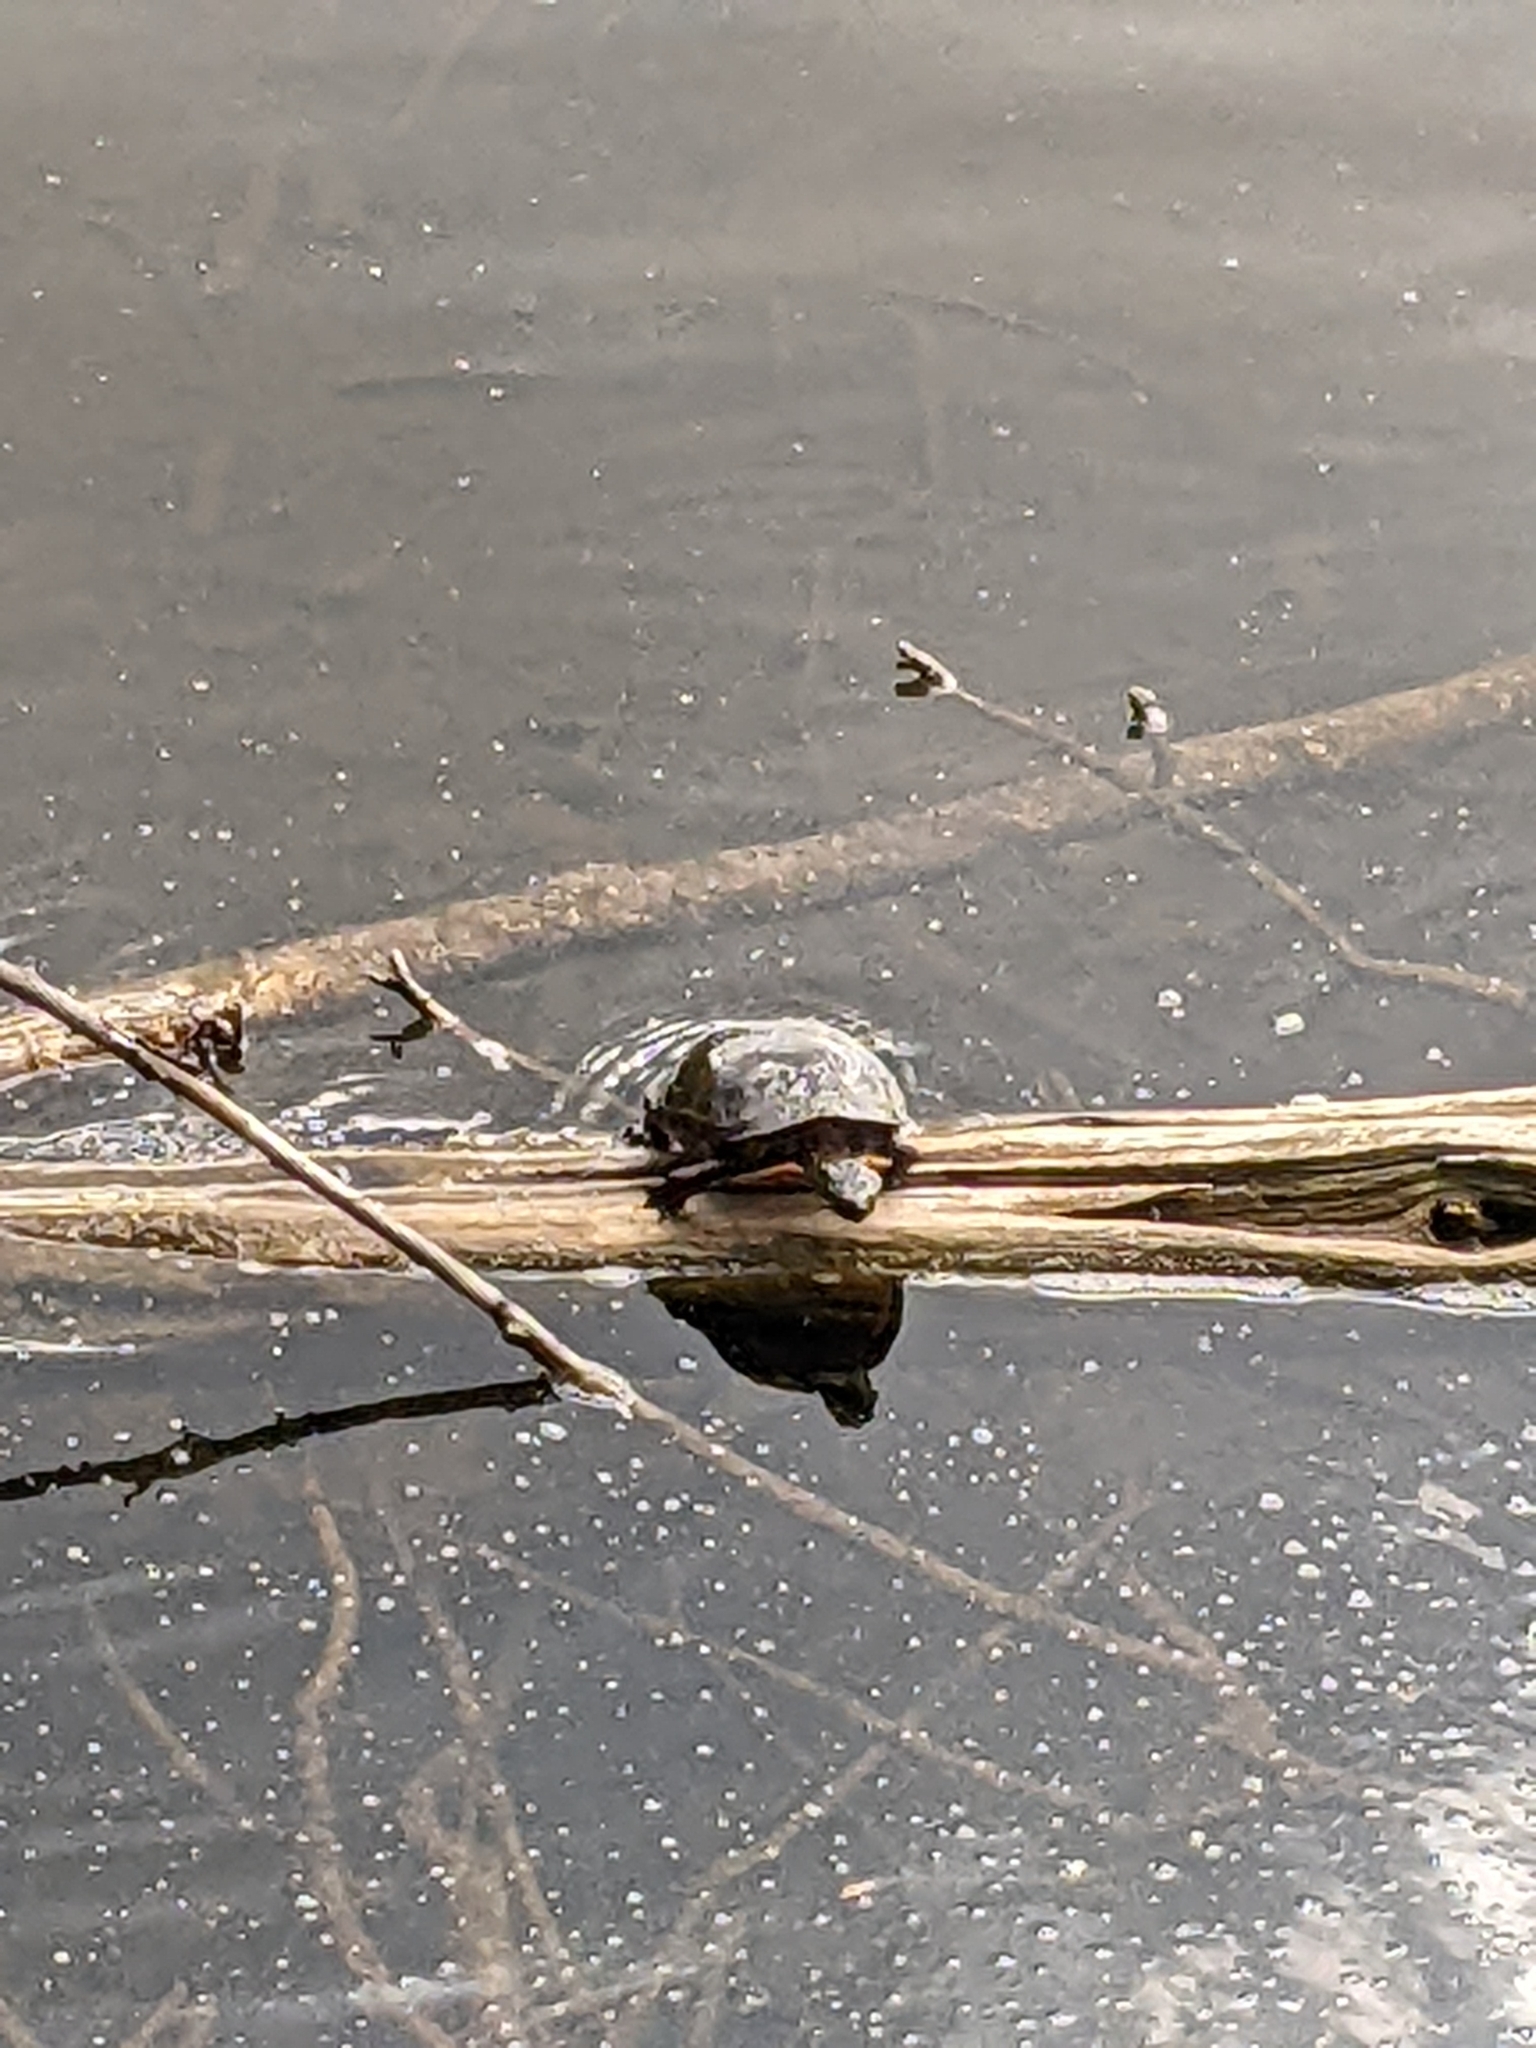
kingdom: Animalia
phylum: Chordata
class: Testudines
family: Emydidae
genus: Chrysemys
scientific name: Chrysemys picta
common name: Painted turtle
